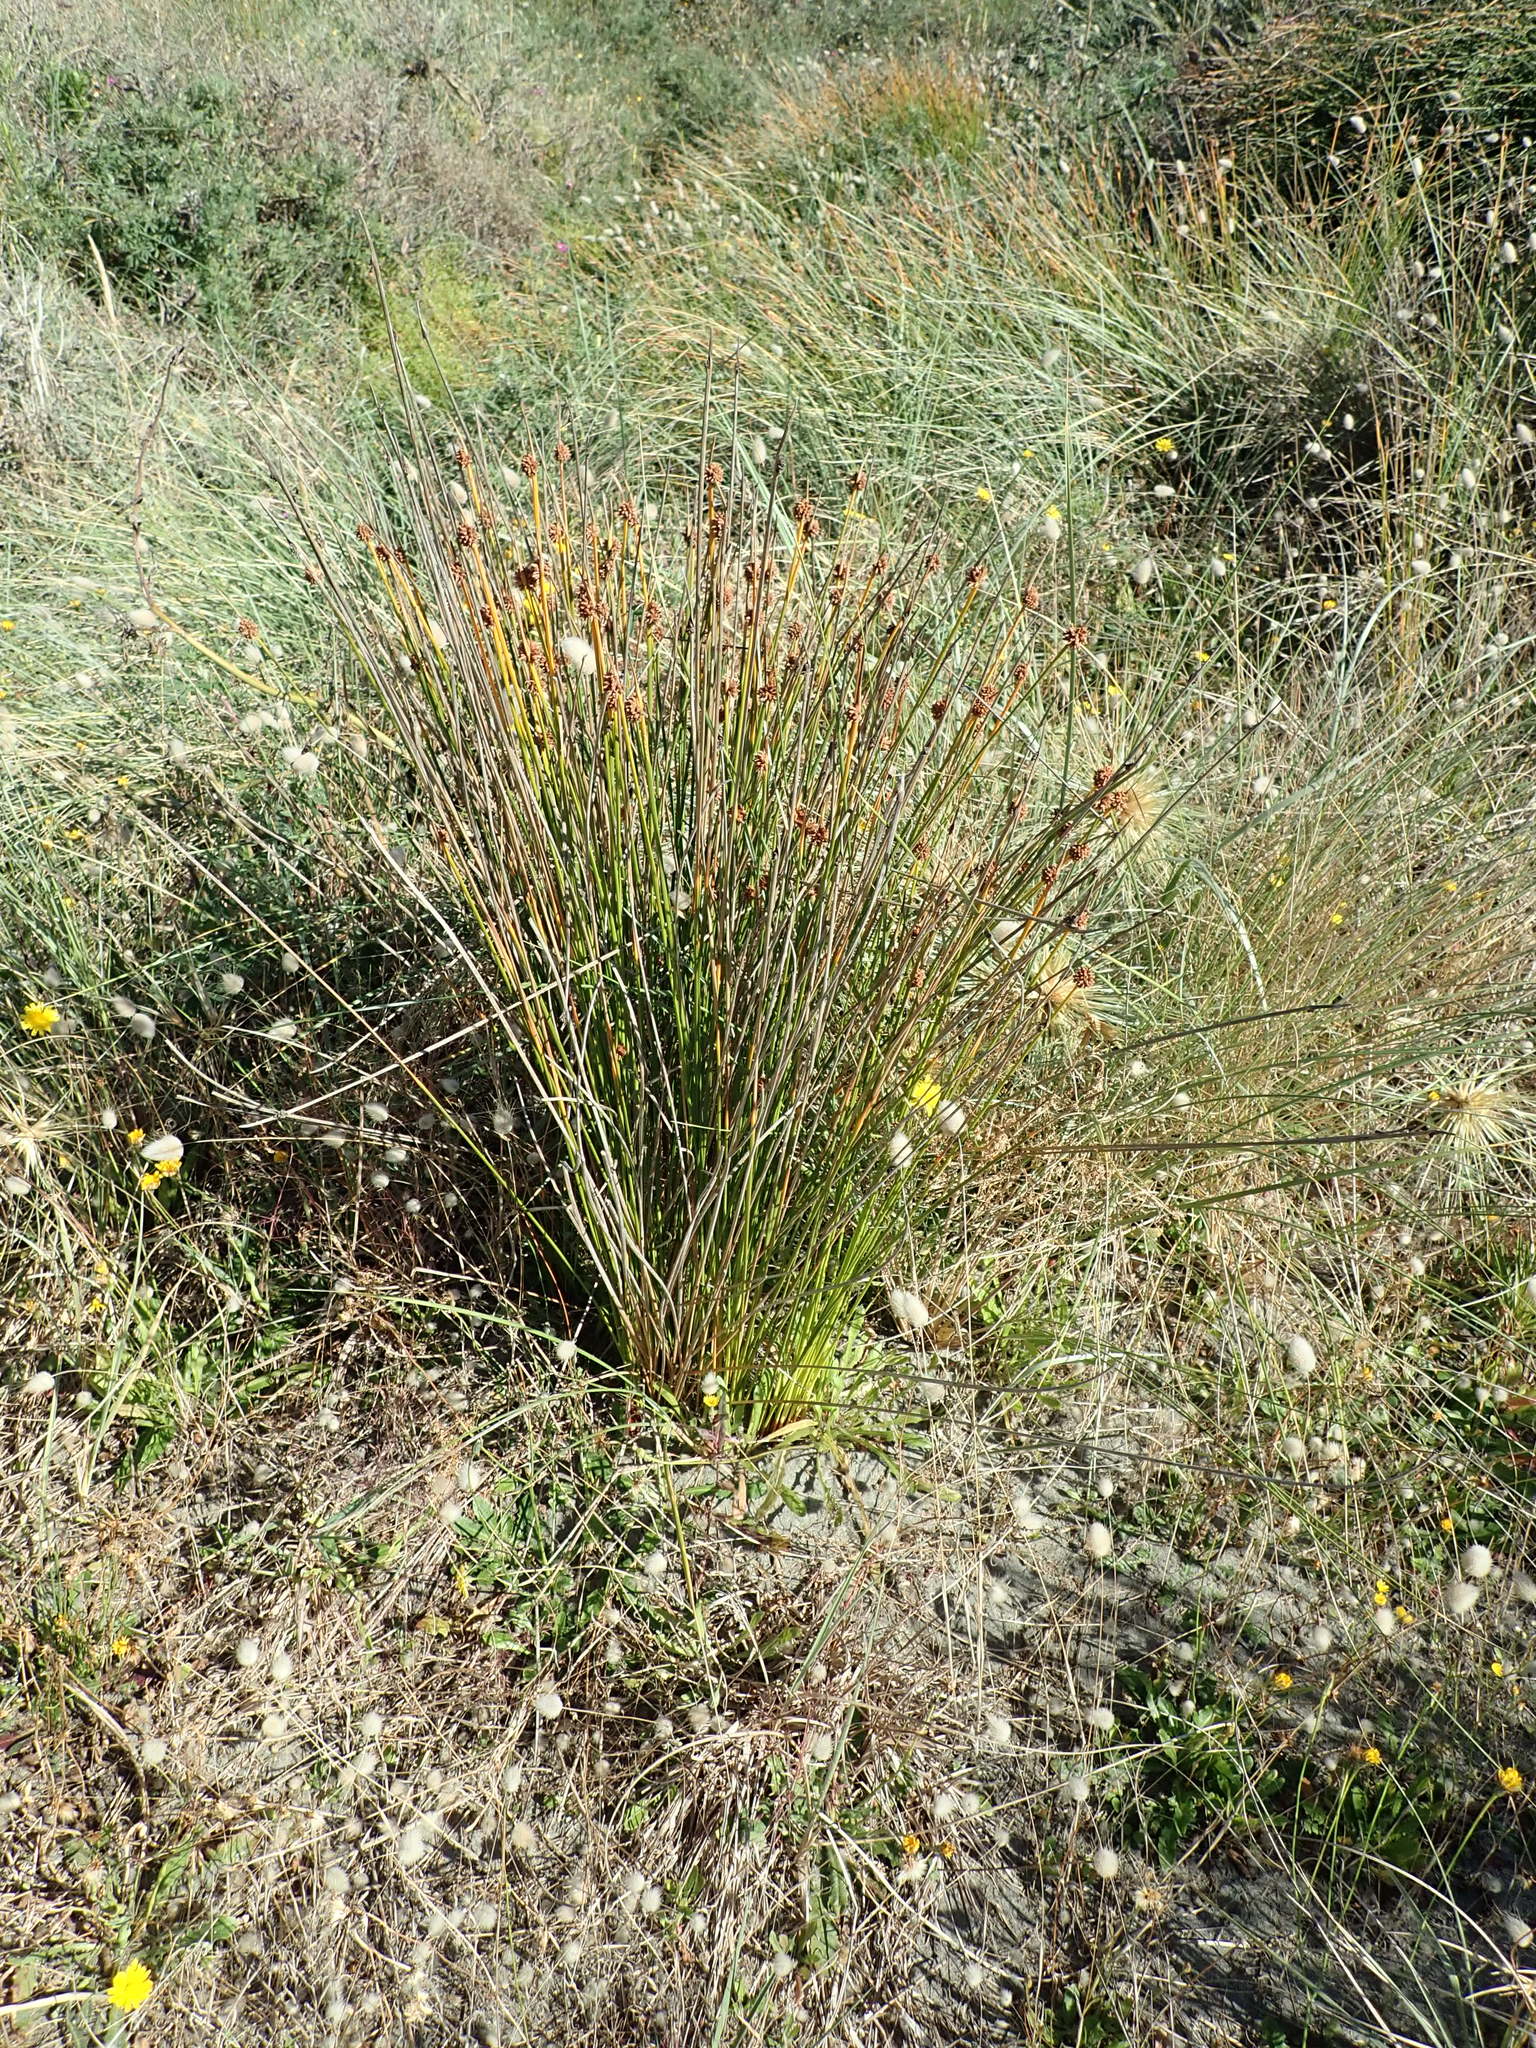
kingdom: Plantae
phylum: Tracheophyta
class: Liliopsida
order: Poales
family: Cyperaceae
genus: Ficinia
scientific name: Ficinia nodosa
